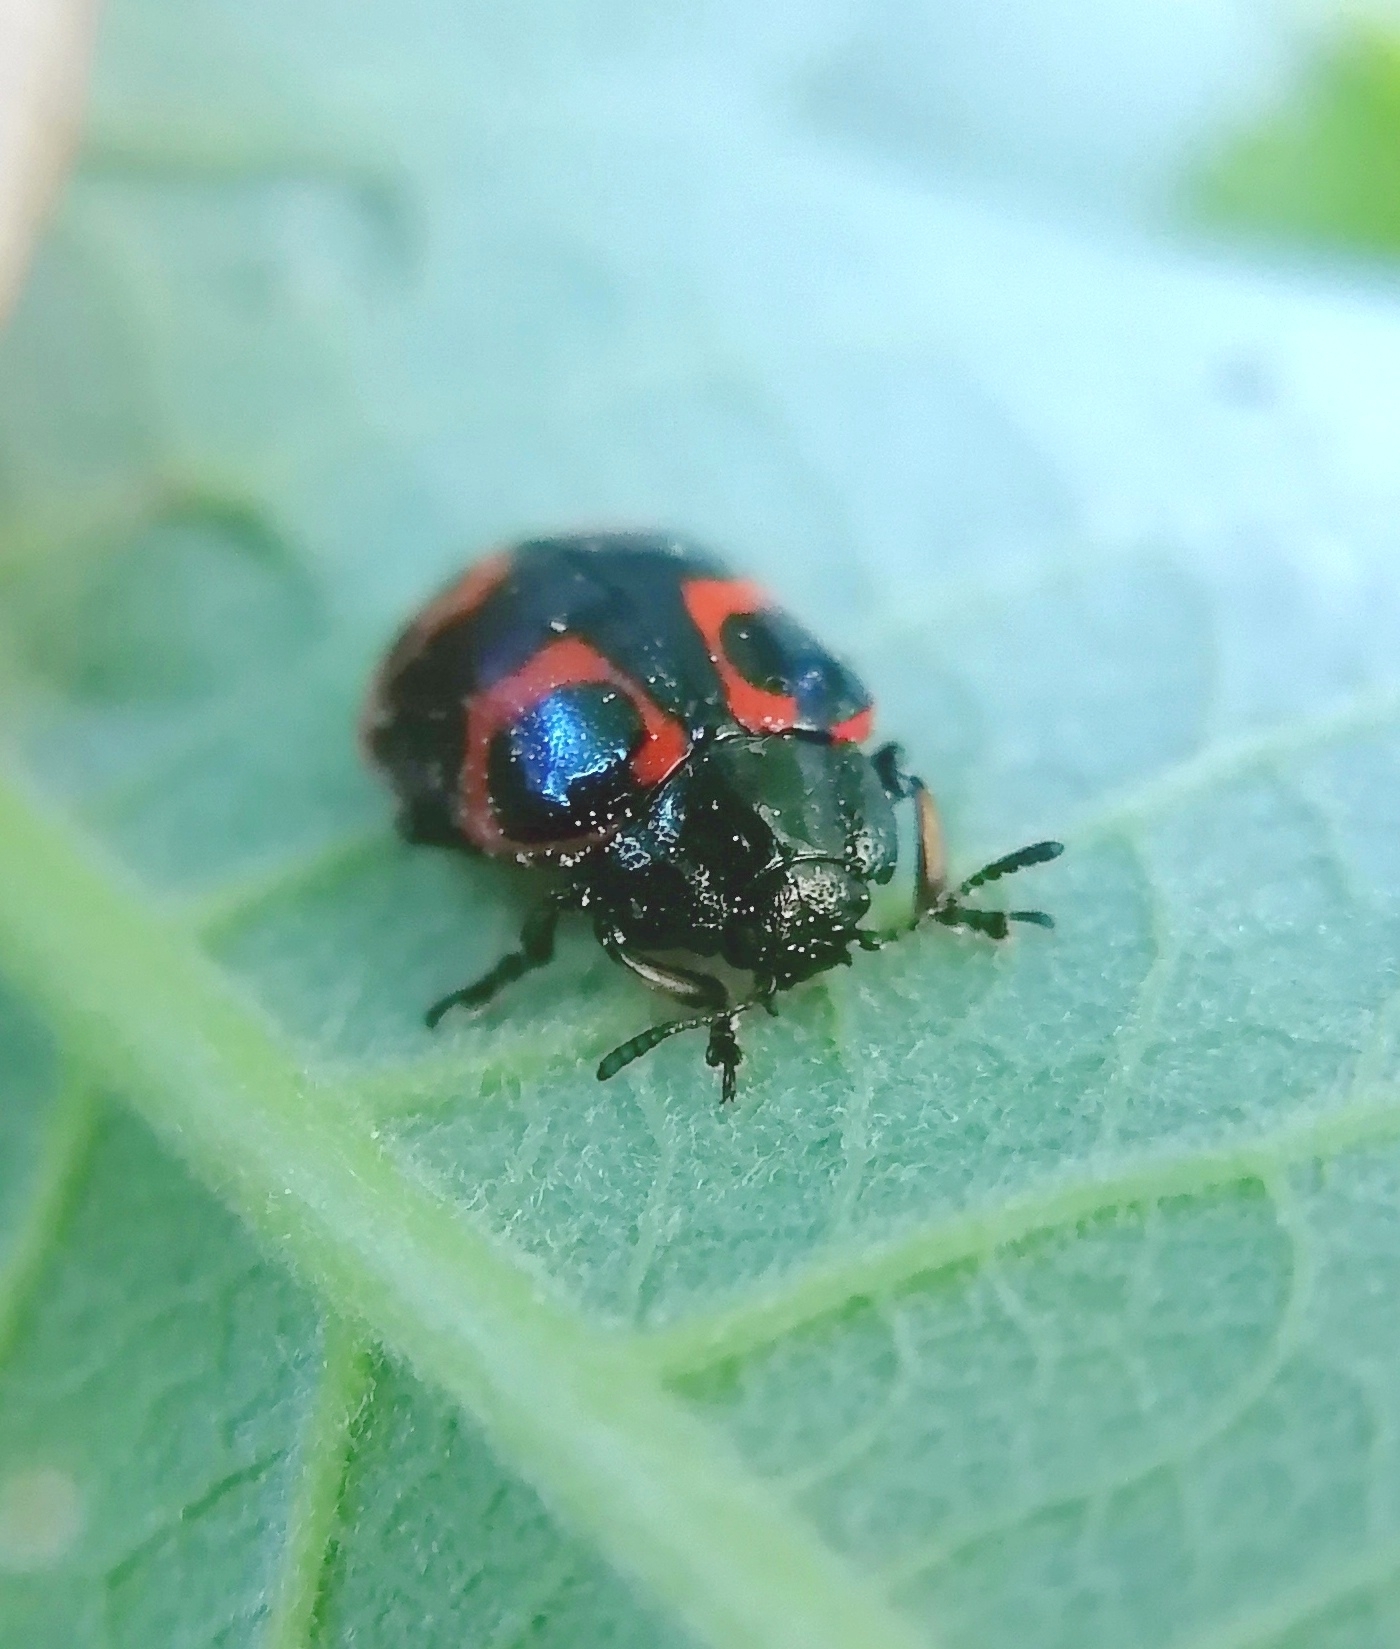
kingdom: Animalia
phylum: Arthropoda
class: Insecta
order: Coleoptera
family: Chrysomelidae
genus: Chrysomela
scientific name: Chrysomela lapponica
